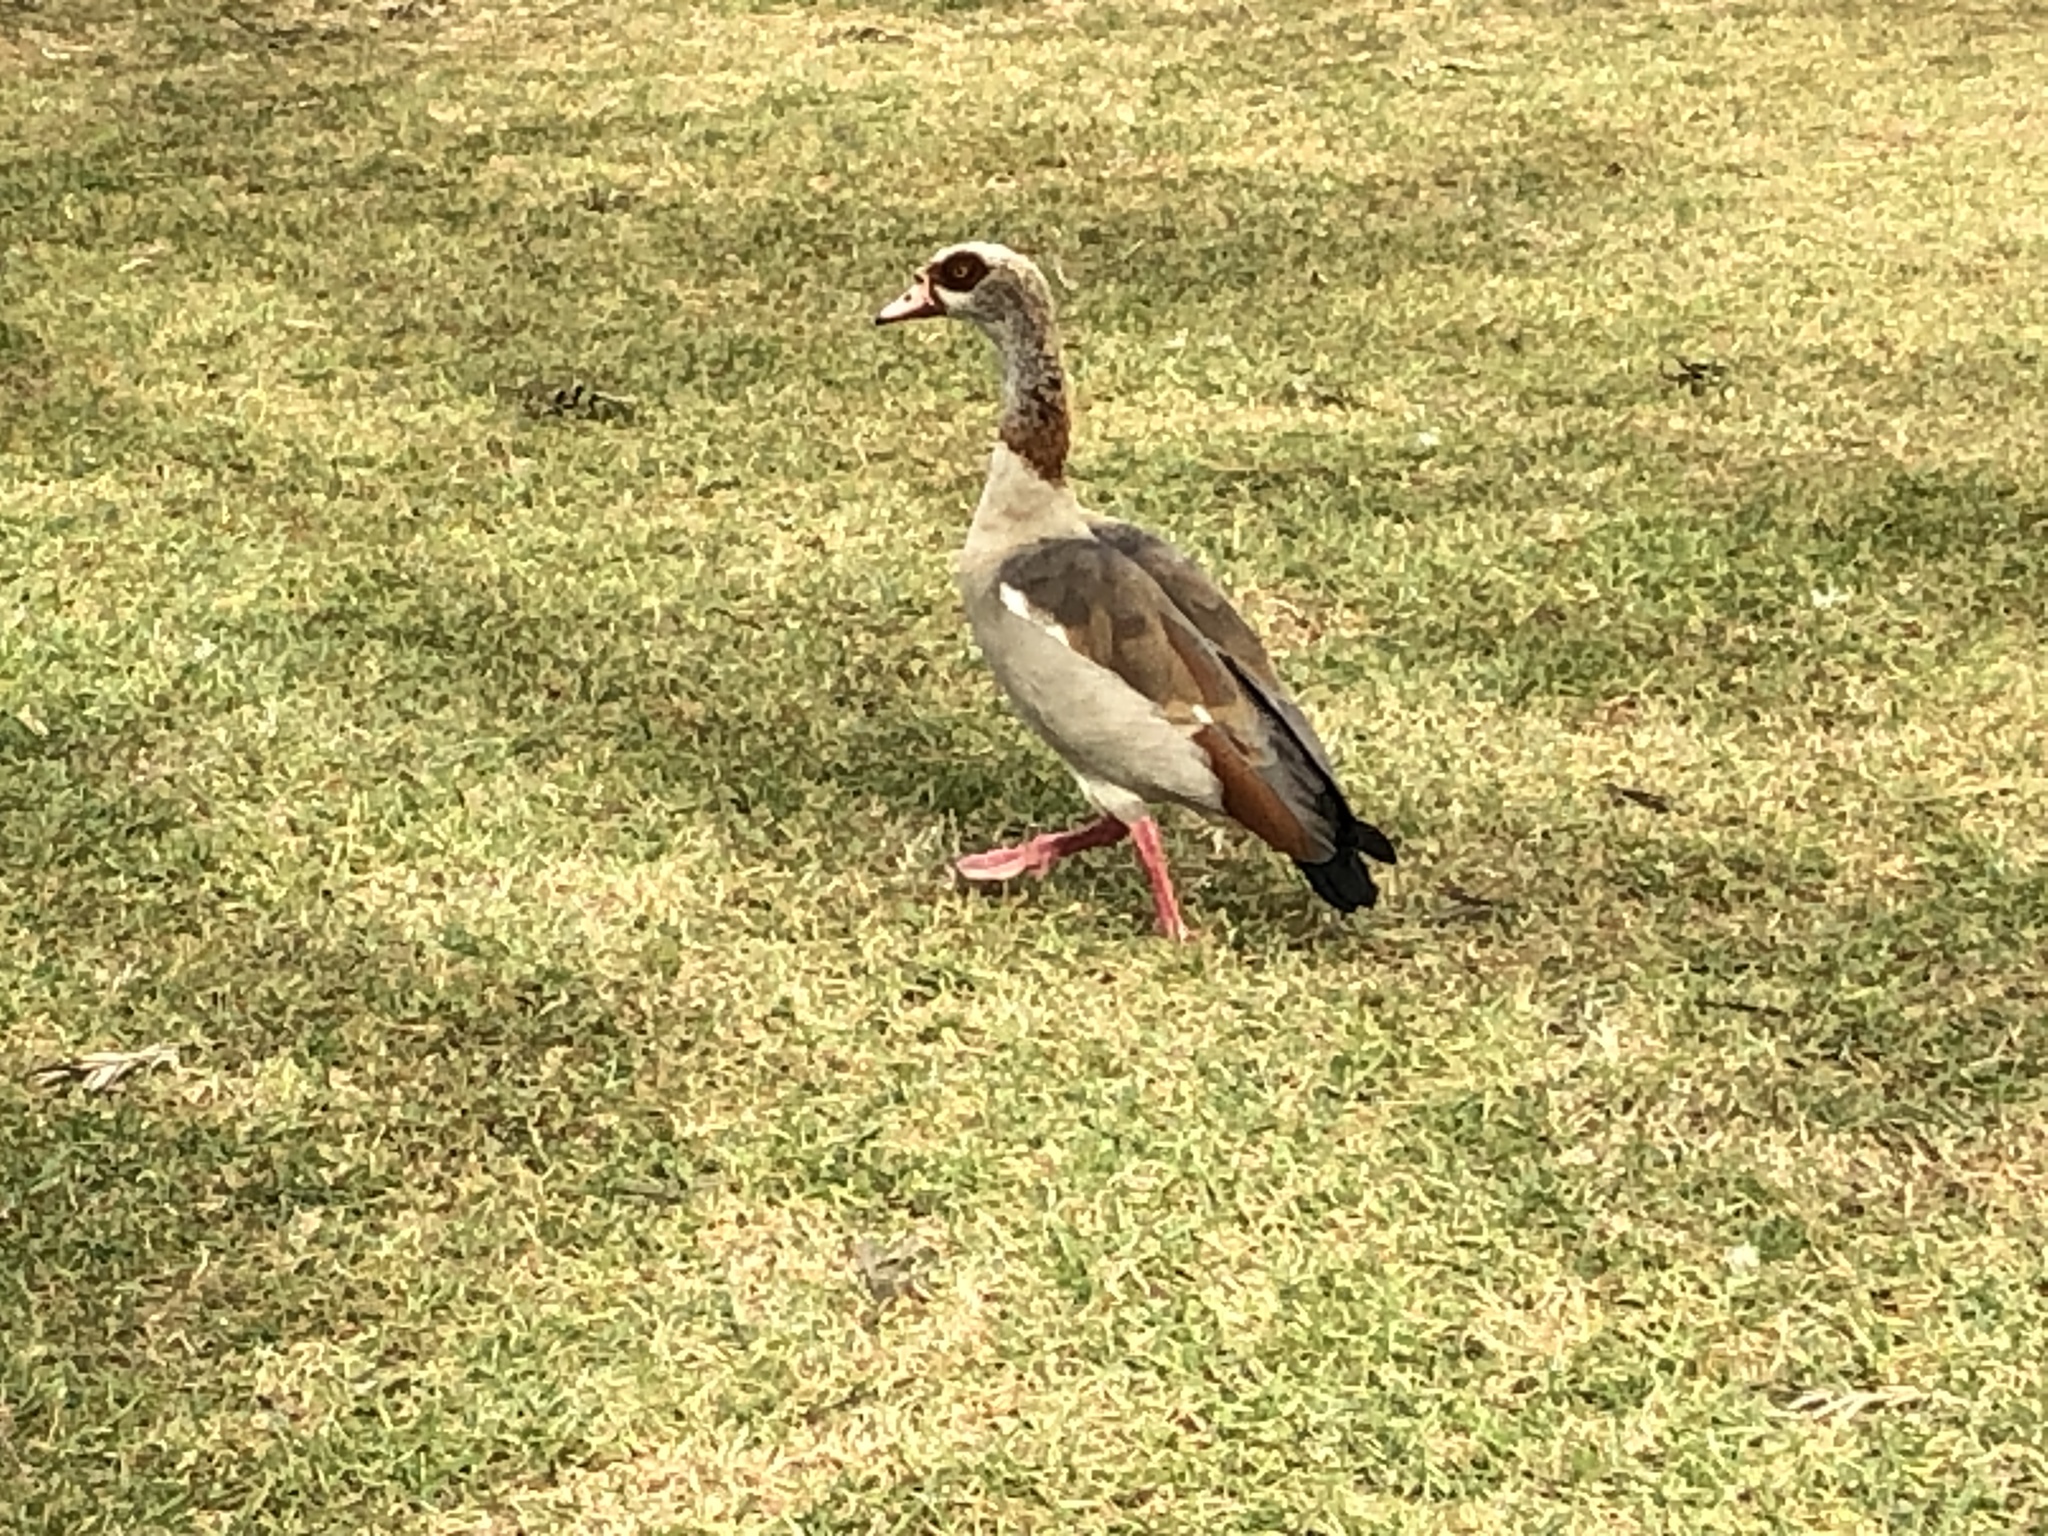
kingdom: Animalia
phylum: Chordata
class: Aves
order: Anseriformes
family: Anatidae
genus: Alopochen
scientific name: Alopochen aegyptiaca
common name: Egyptian goose
